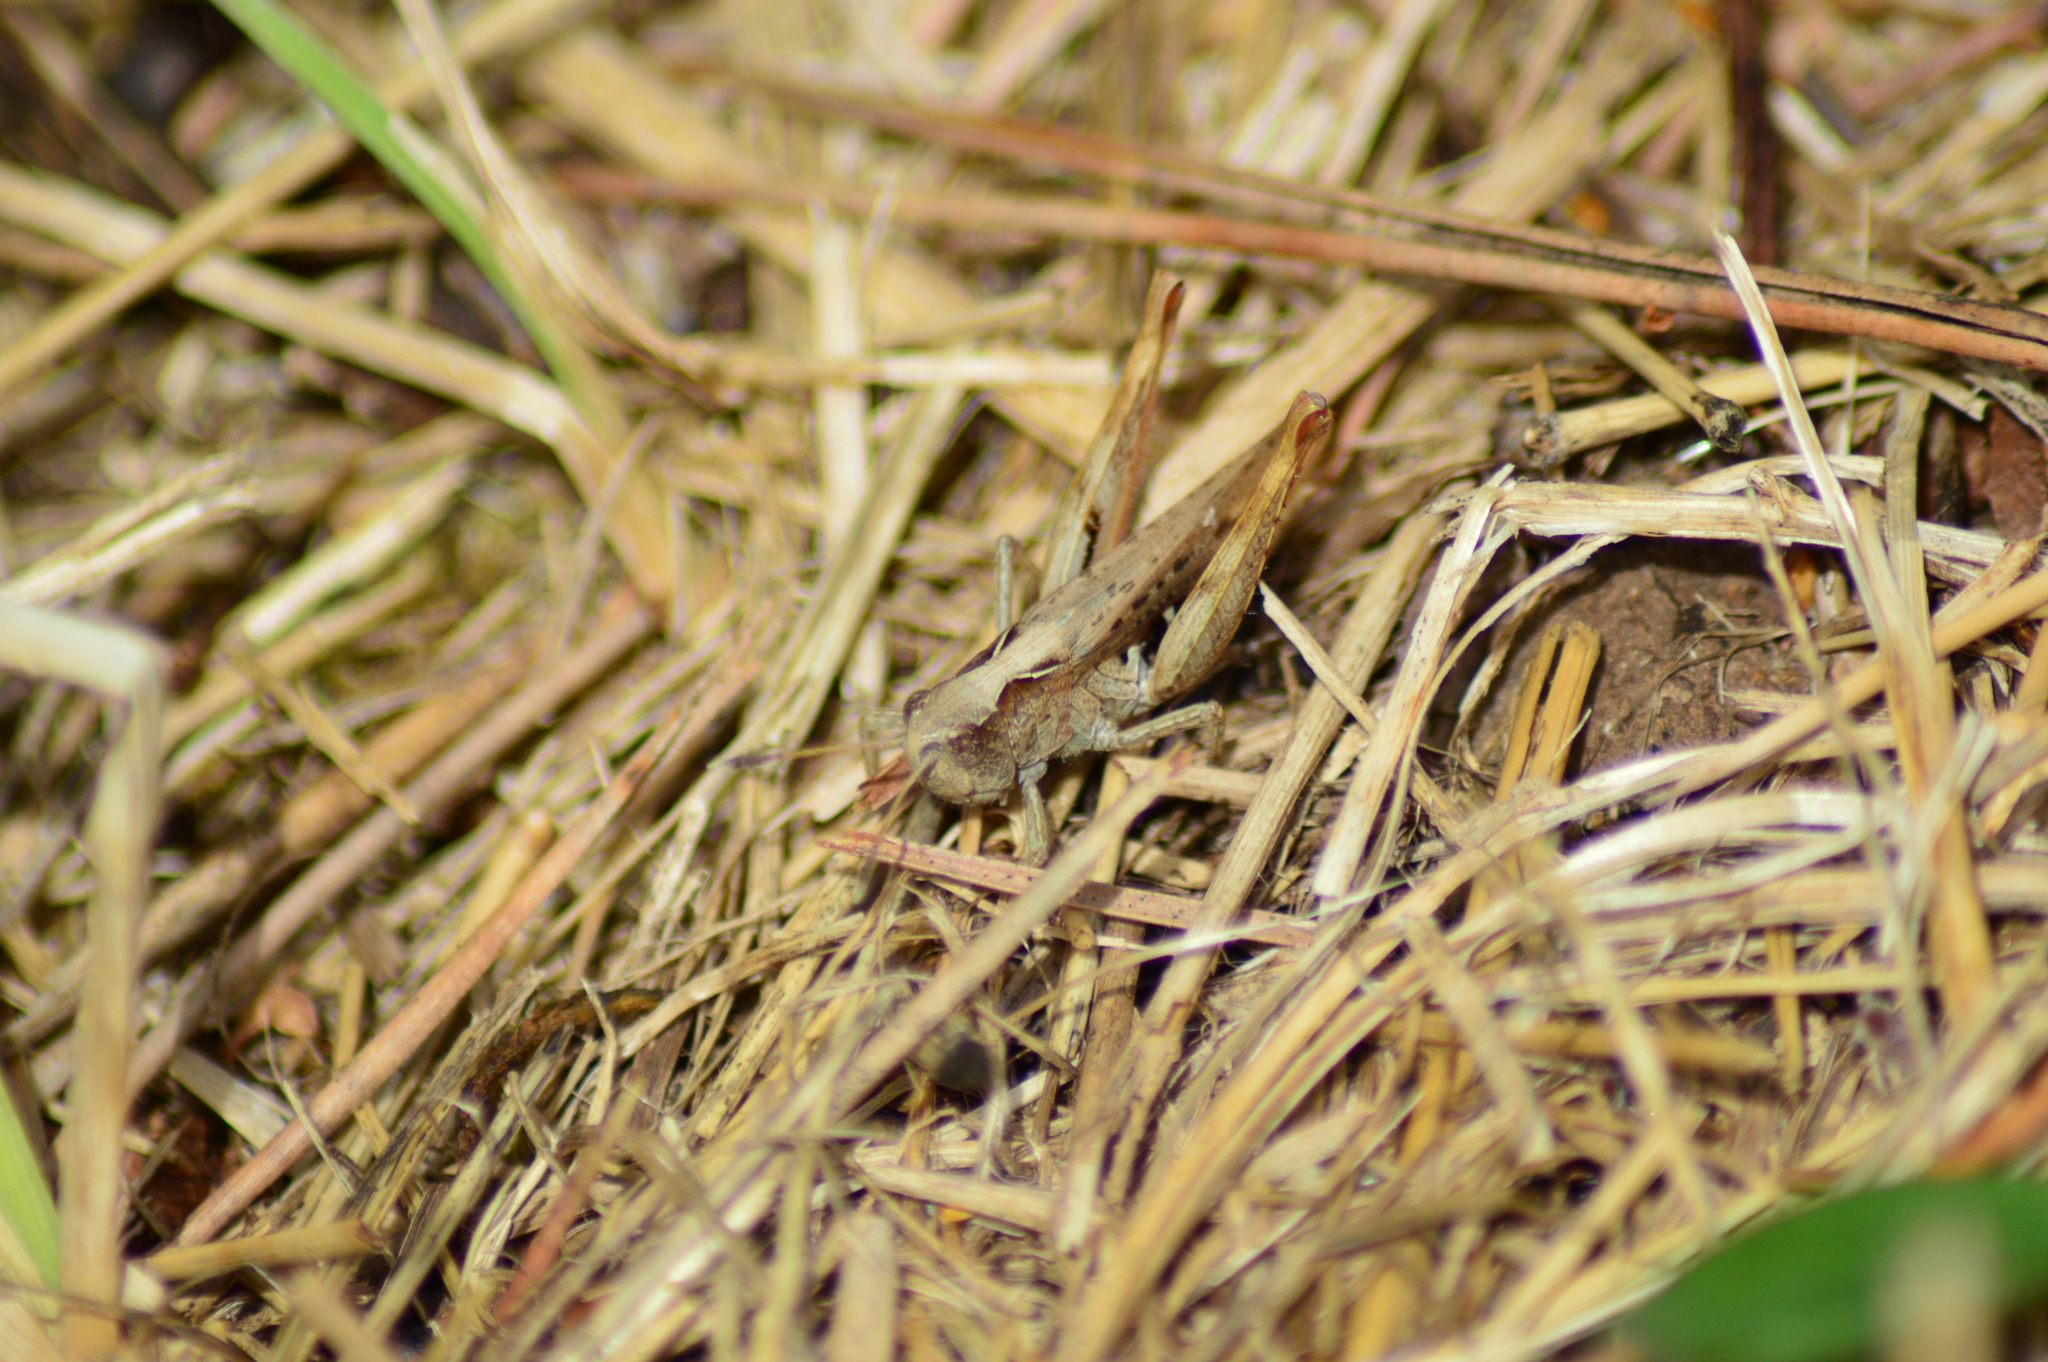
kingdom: Animalia
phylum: Arthropoda
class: Insecta
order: Orthoptera
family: Acrididae
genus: Gomphocerippus
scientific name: Gomphocerippus rufus
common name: Rufous grasshopper
